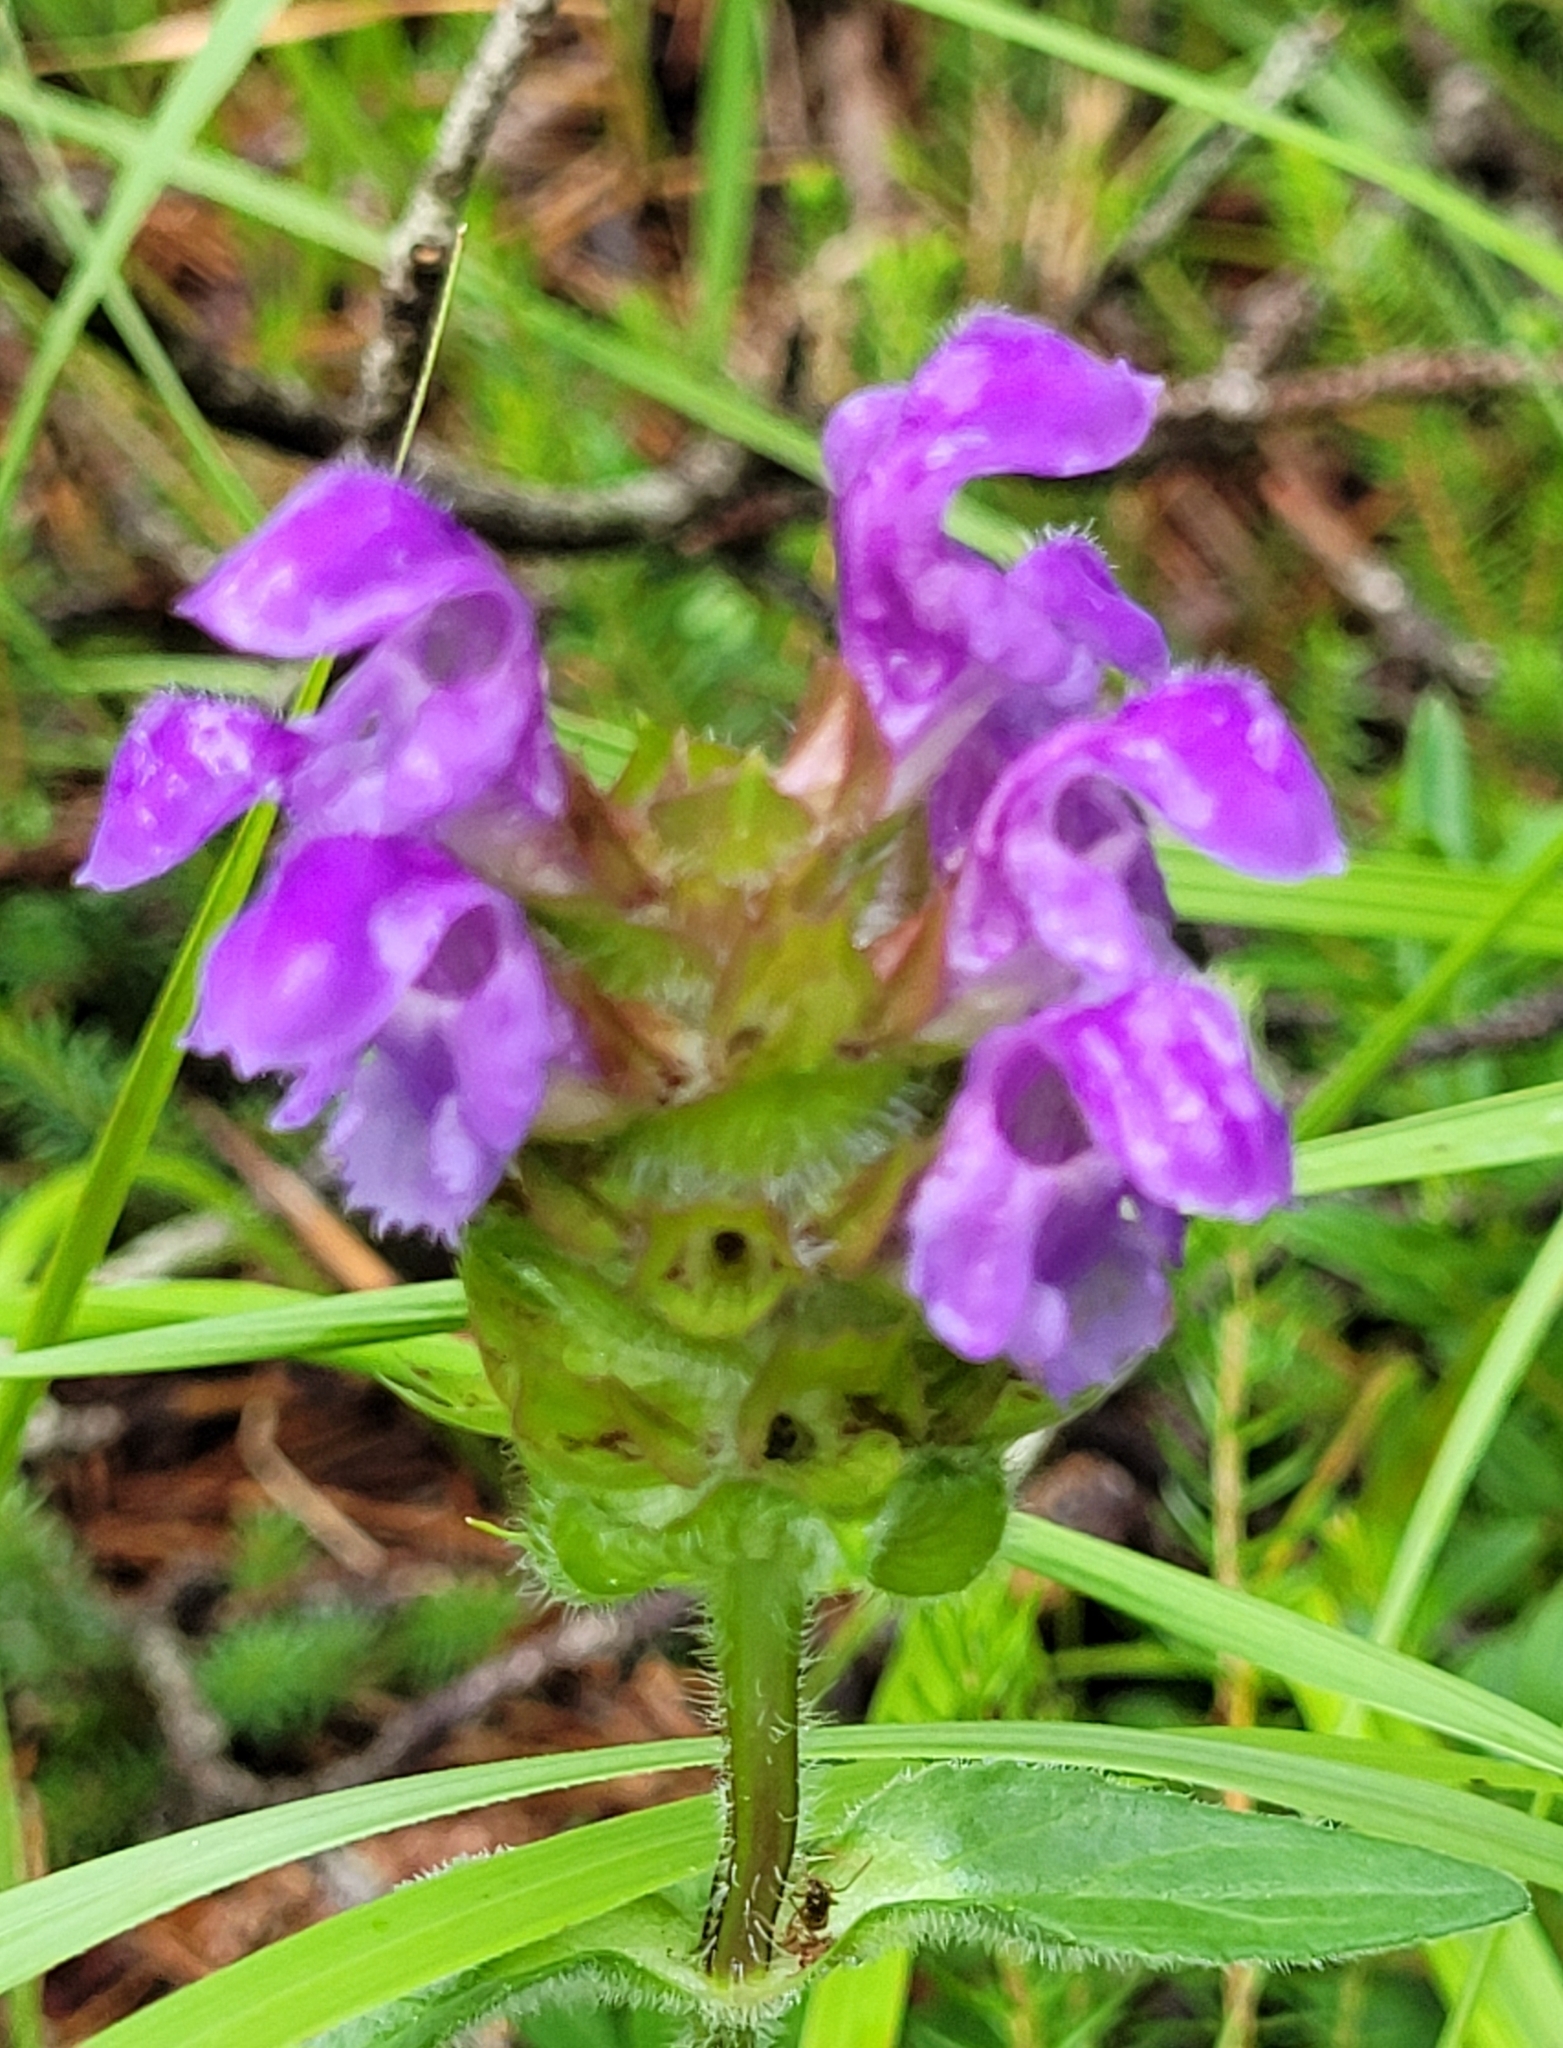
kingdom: Plantae
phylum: Tracheophyta
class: Magnoliopsida
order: Lamiales
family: Lamiaceae
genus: Prunella
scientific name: Prunella grandiflora
